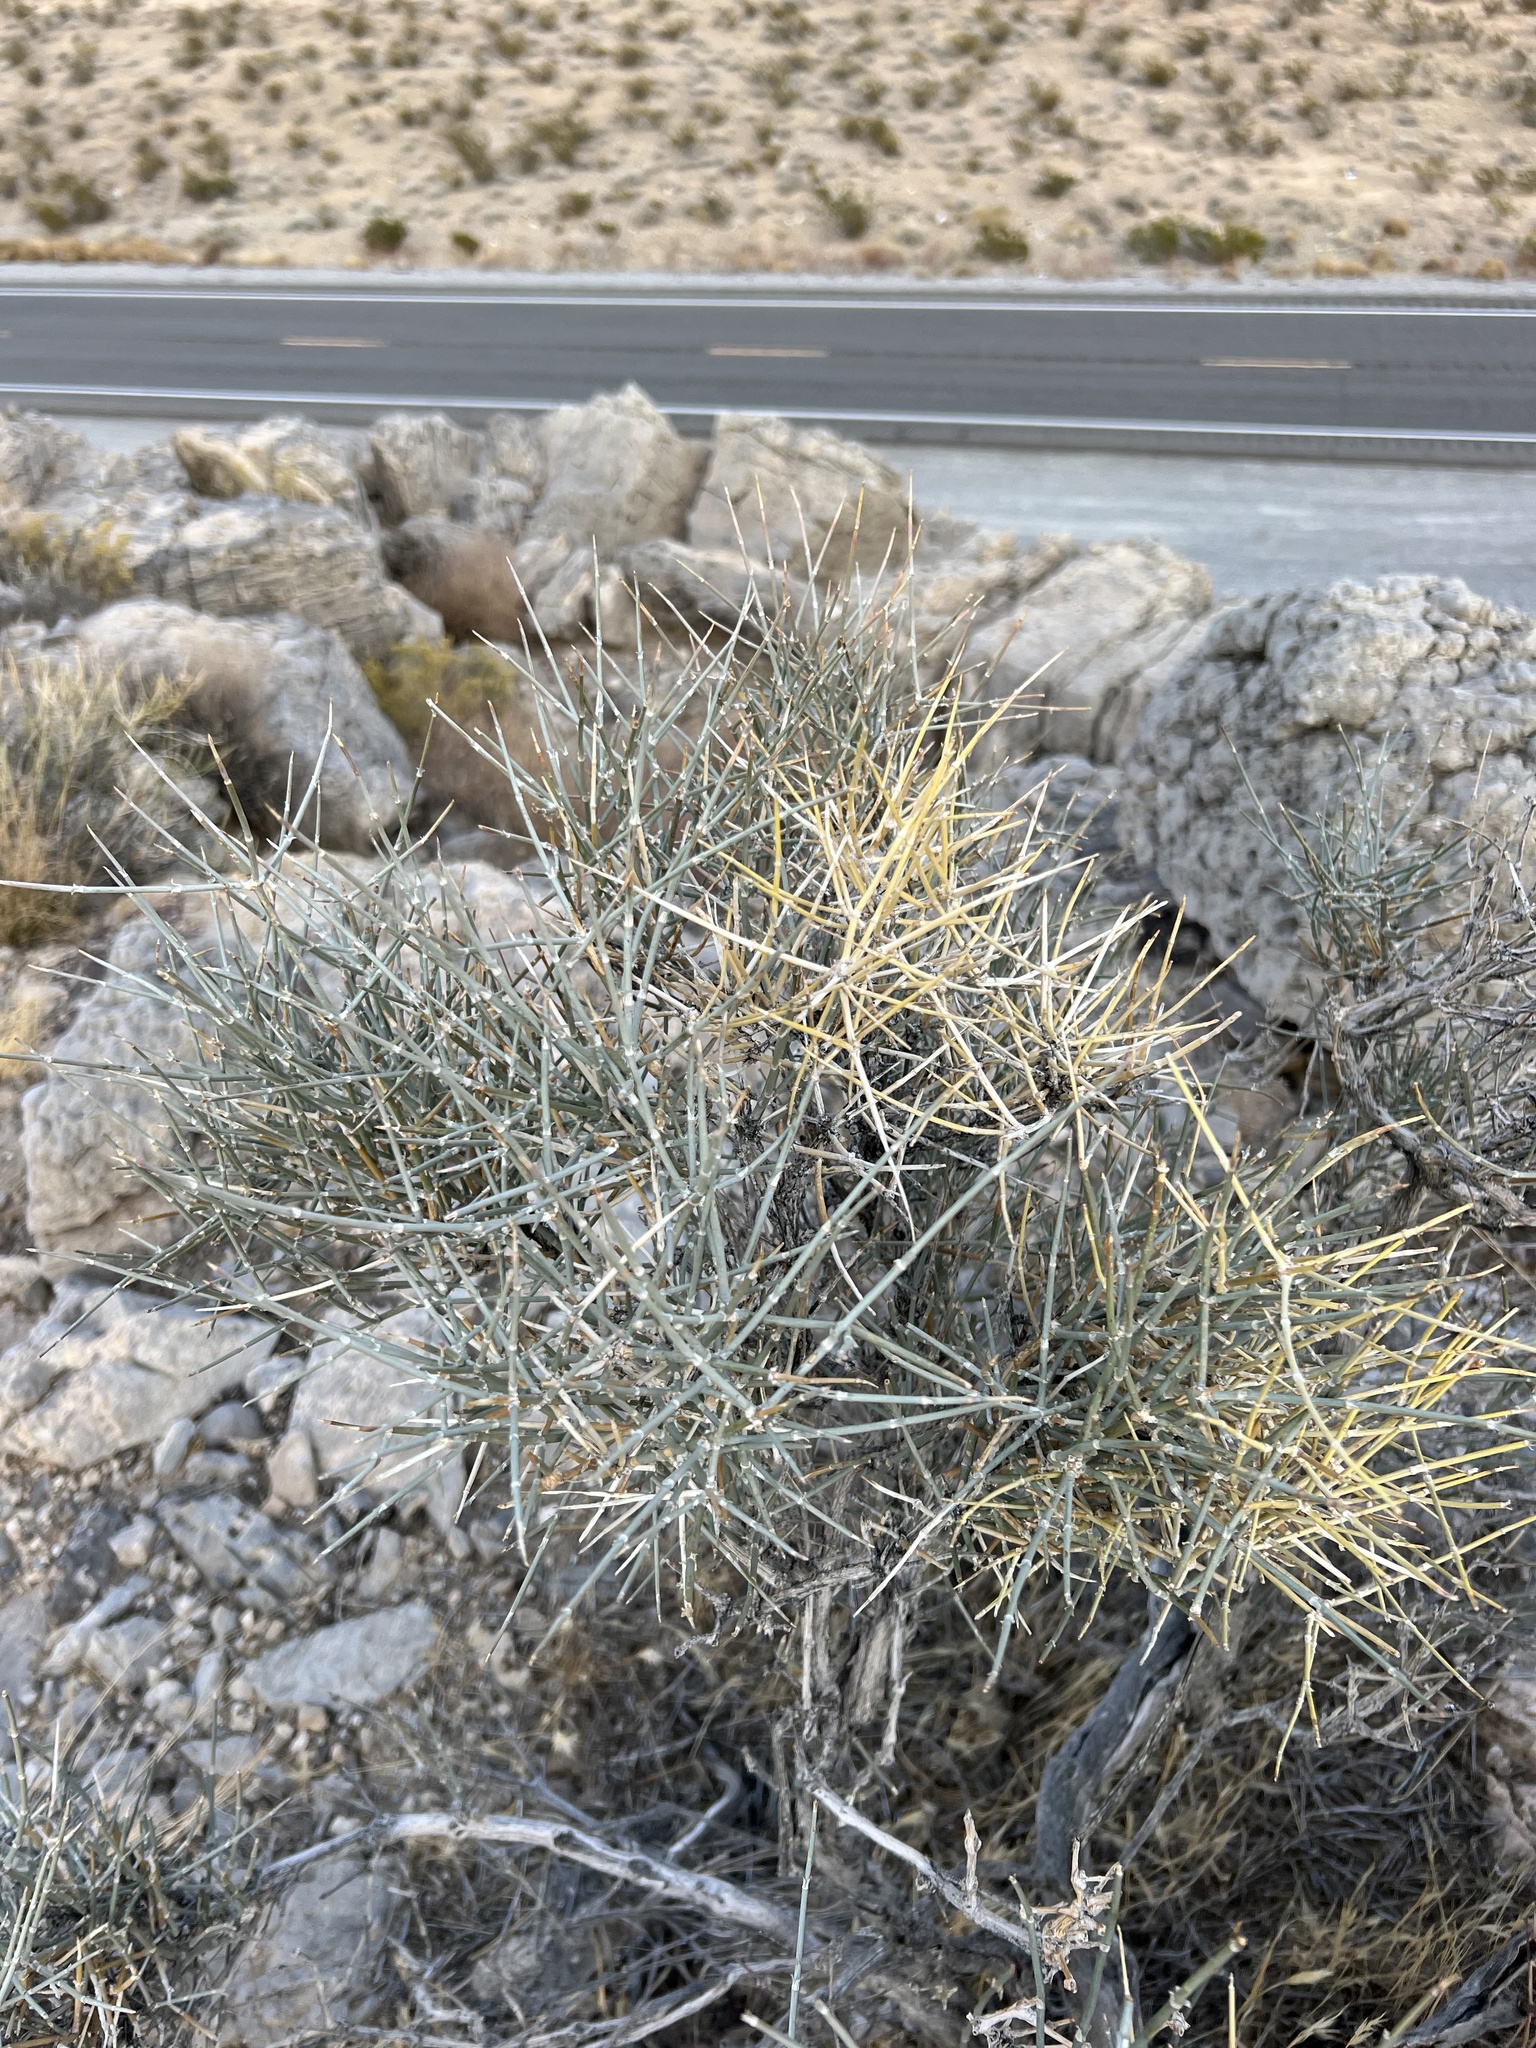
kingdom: Plantae
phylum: Tracheophyta
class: Gnetopsida
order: Ephedrales
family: Ephedraceae
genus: Ephedra
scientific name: Ephedra nevadensis
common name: Gray ephedra
